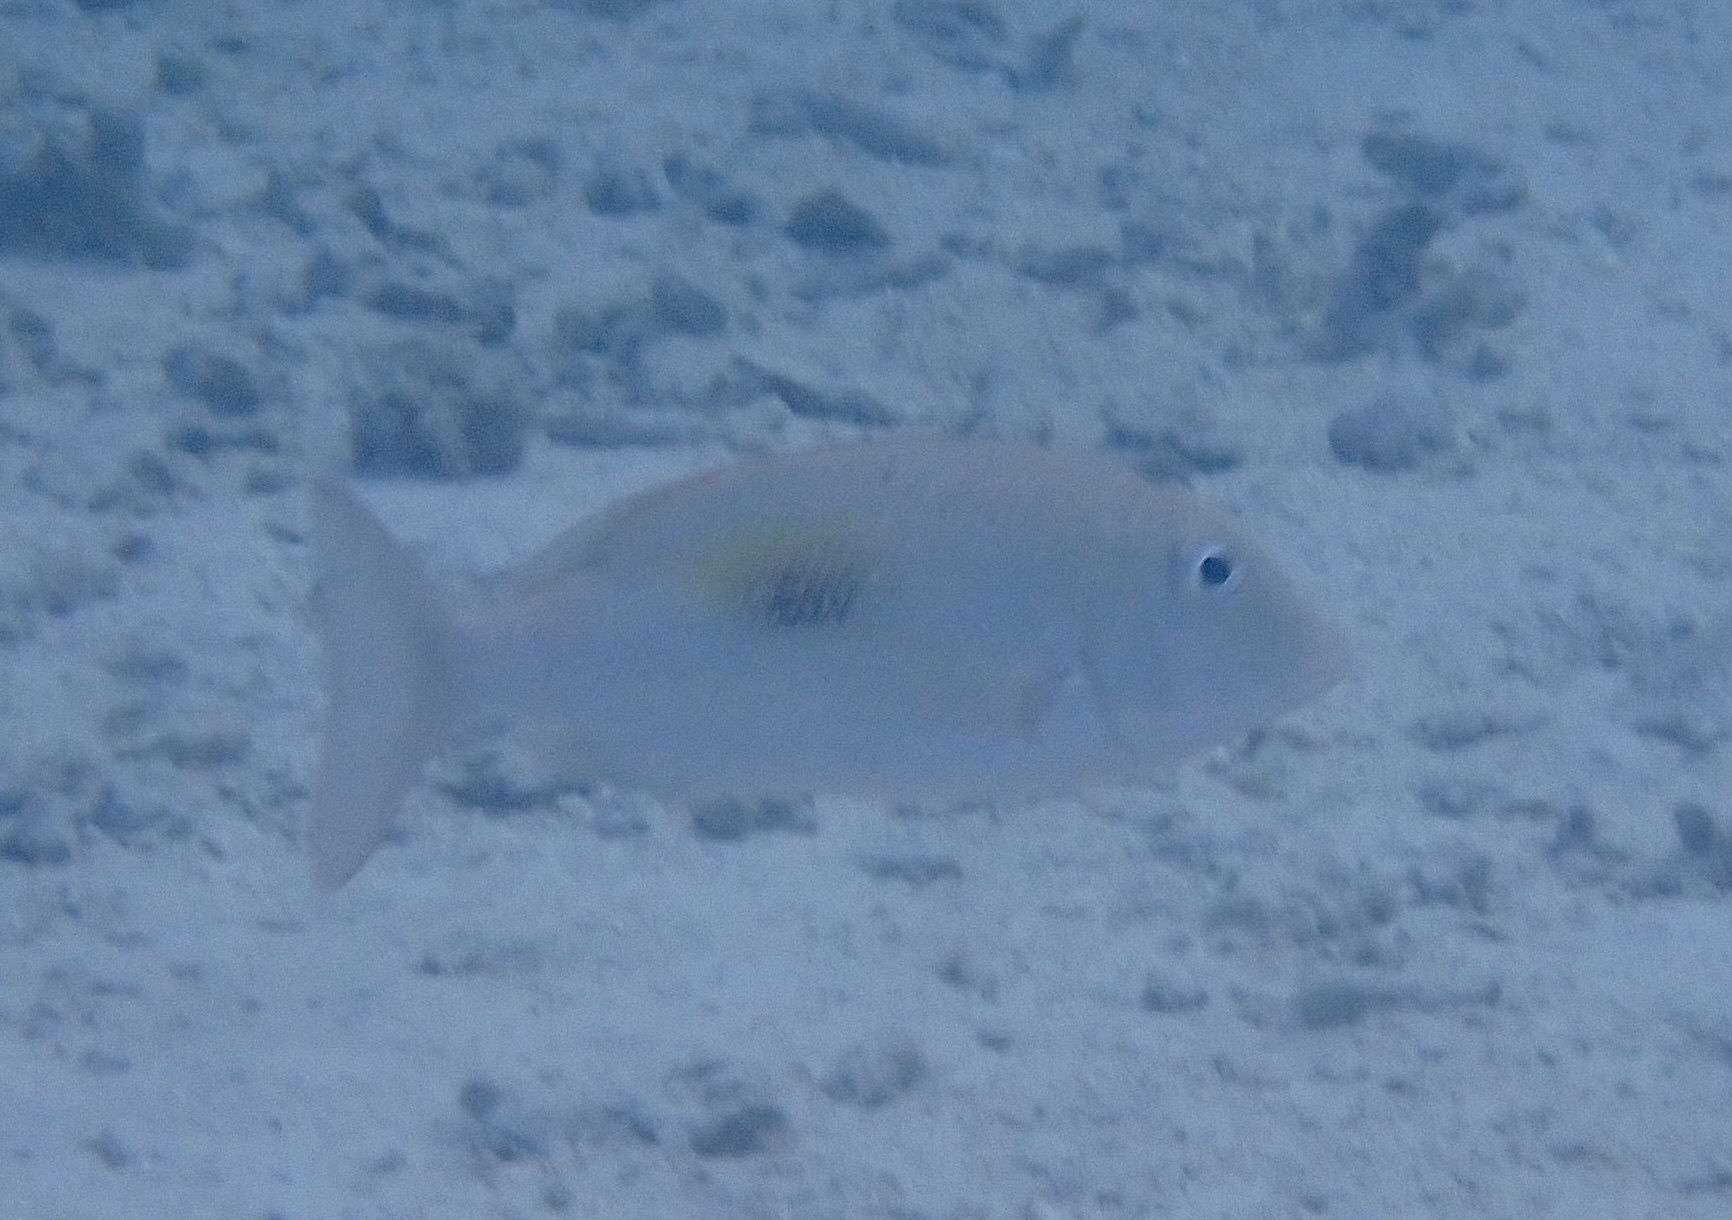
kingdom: Animalia
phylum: Chordata
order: Perciformes
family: Lethrinidae
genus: Lethrinus
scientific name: Lethrinus harak
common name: Blackspot emperor
